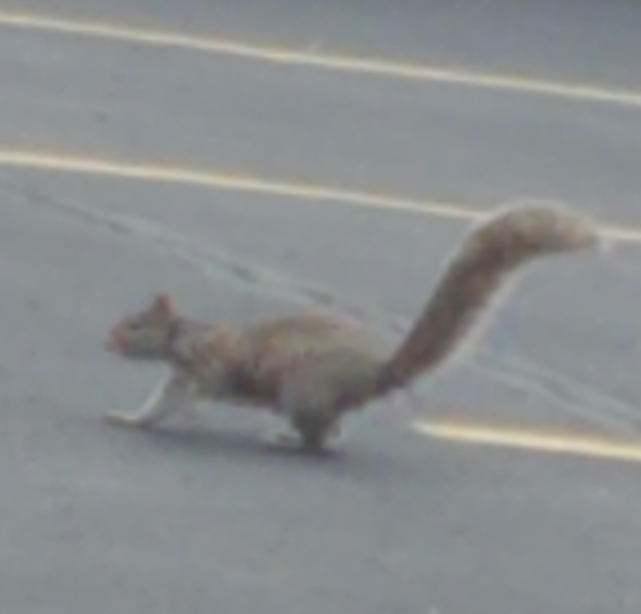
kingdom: Animalia
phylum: Chordata
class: Mammalia
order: Rodentia
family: Sciuridae
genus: Sciurus
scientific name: Sciurus carolinensis
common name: Eastern gray squirrel
